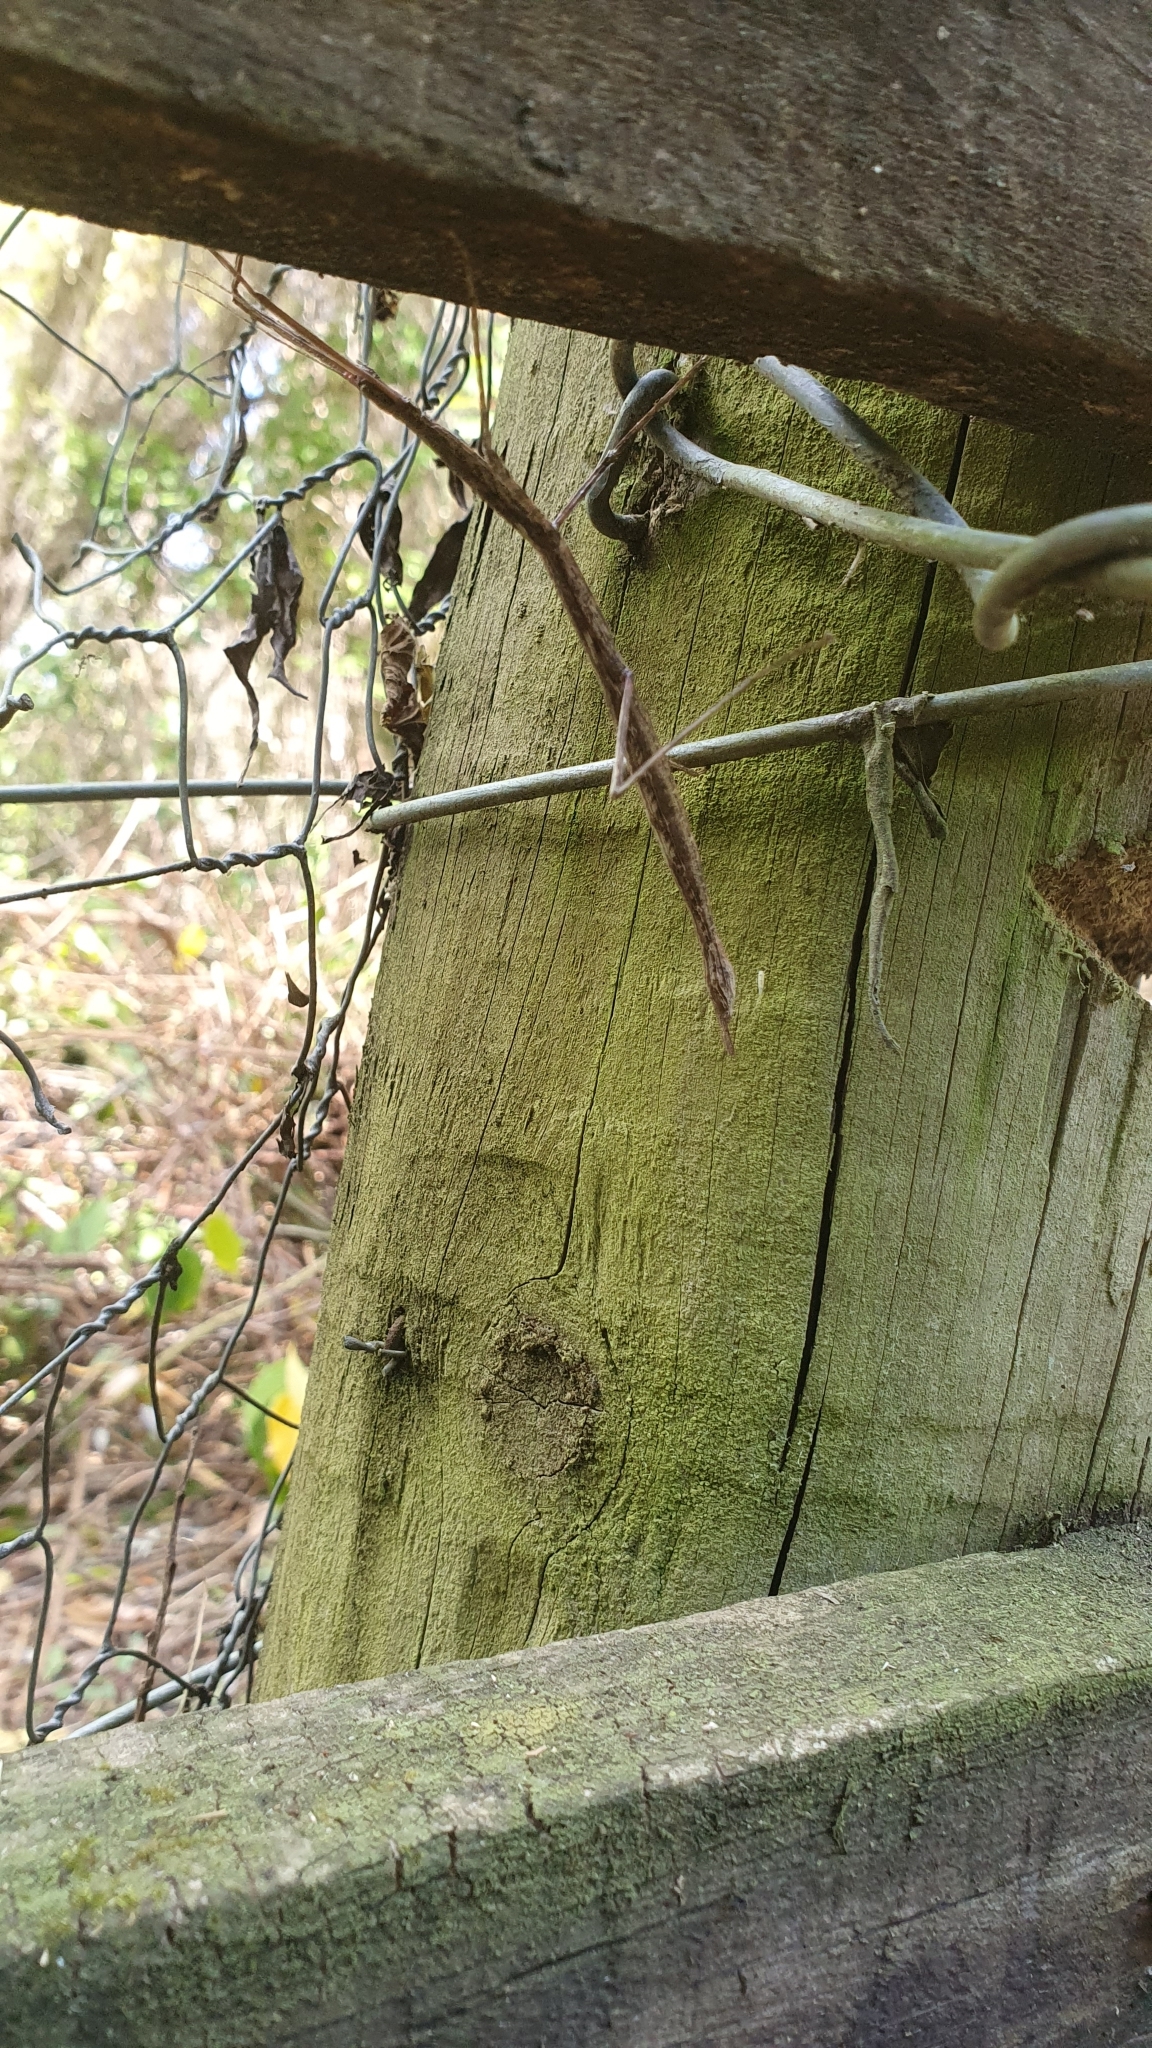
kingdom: Animalia
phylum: Arthropoda
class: Insecta
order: Phasmida
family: Phasmatidae
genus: Clitarchus
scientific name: Clitarchus hookeri
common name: Smooth stick insect
